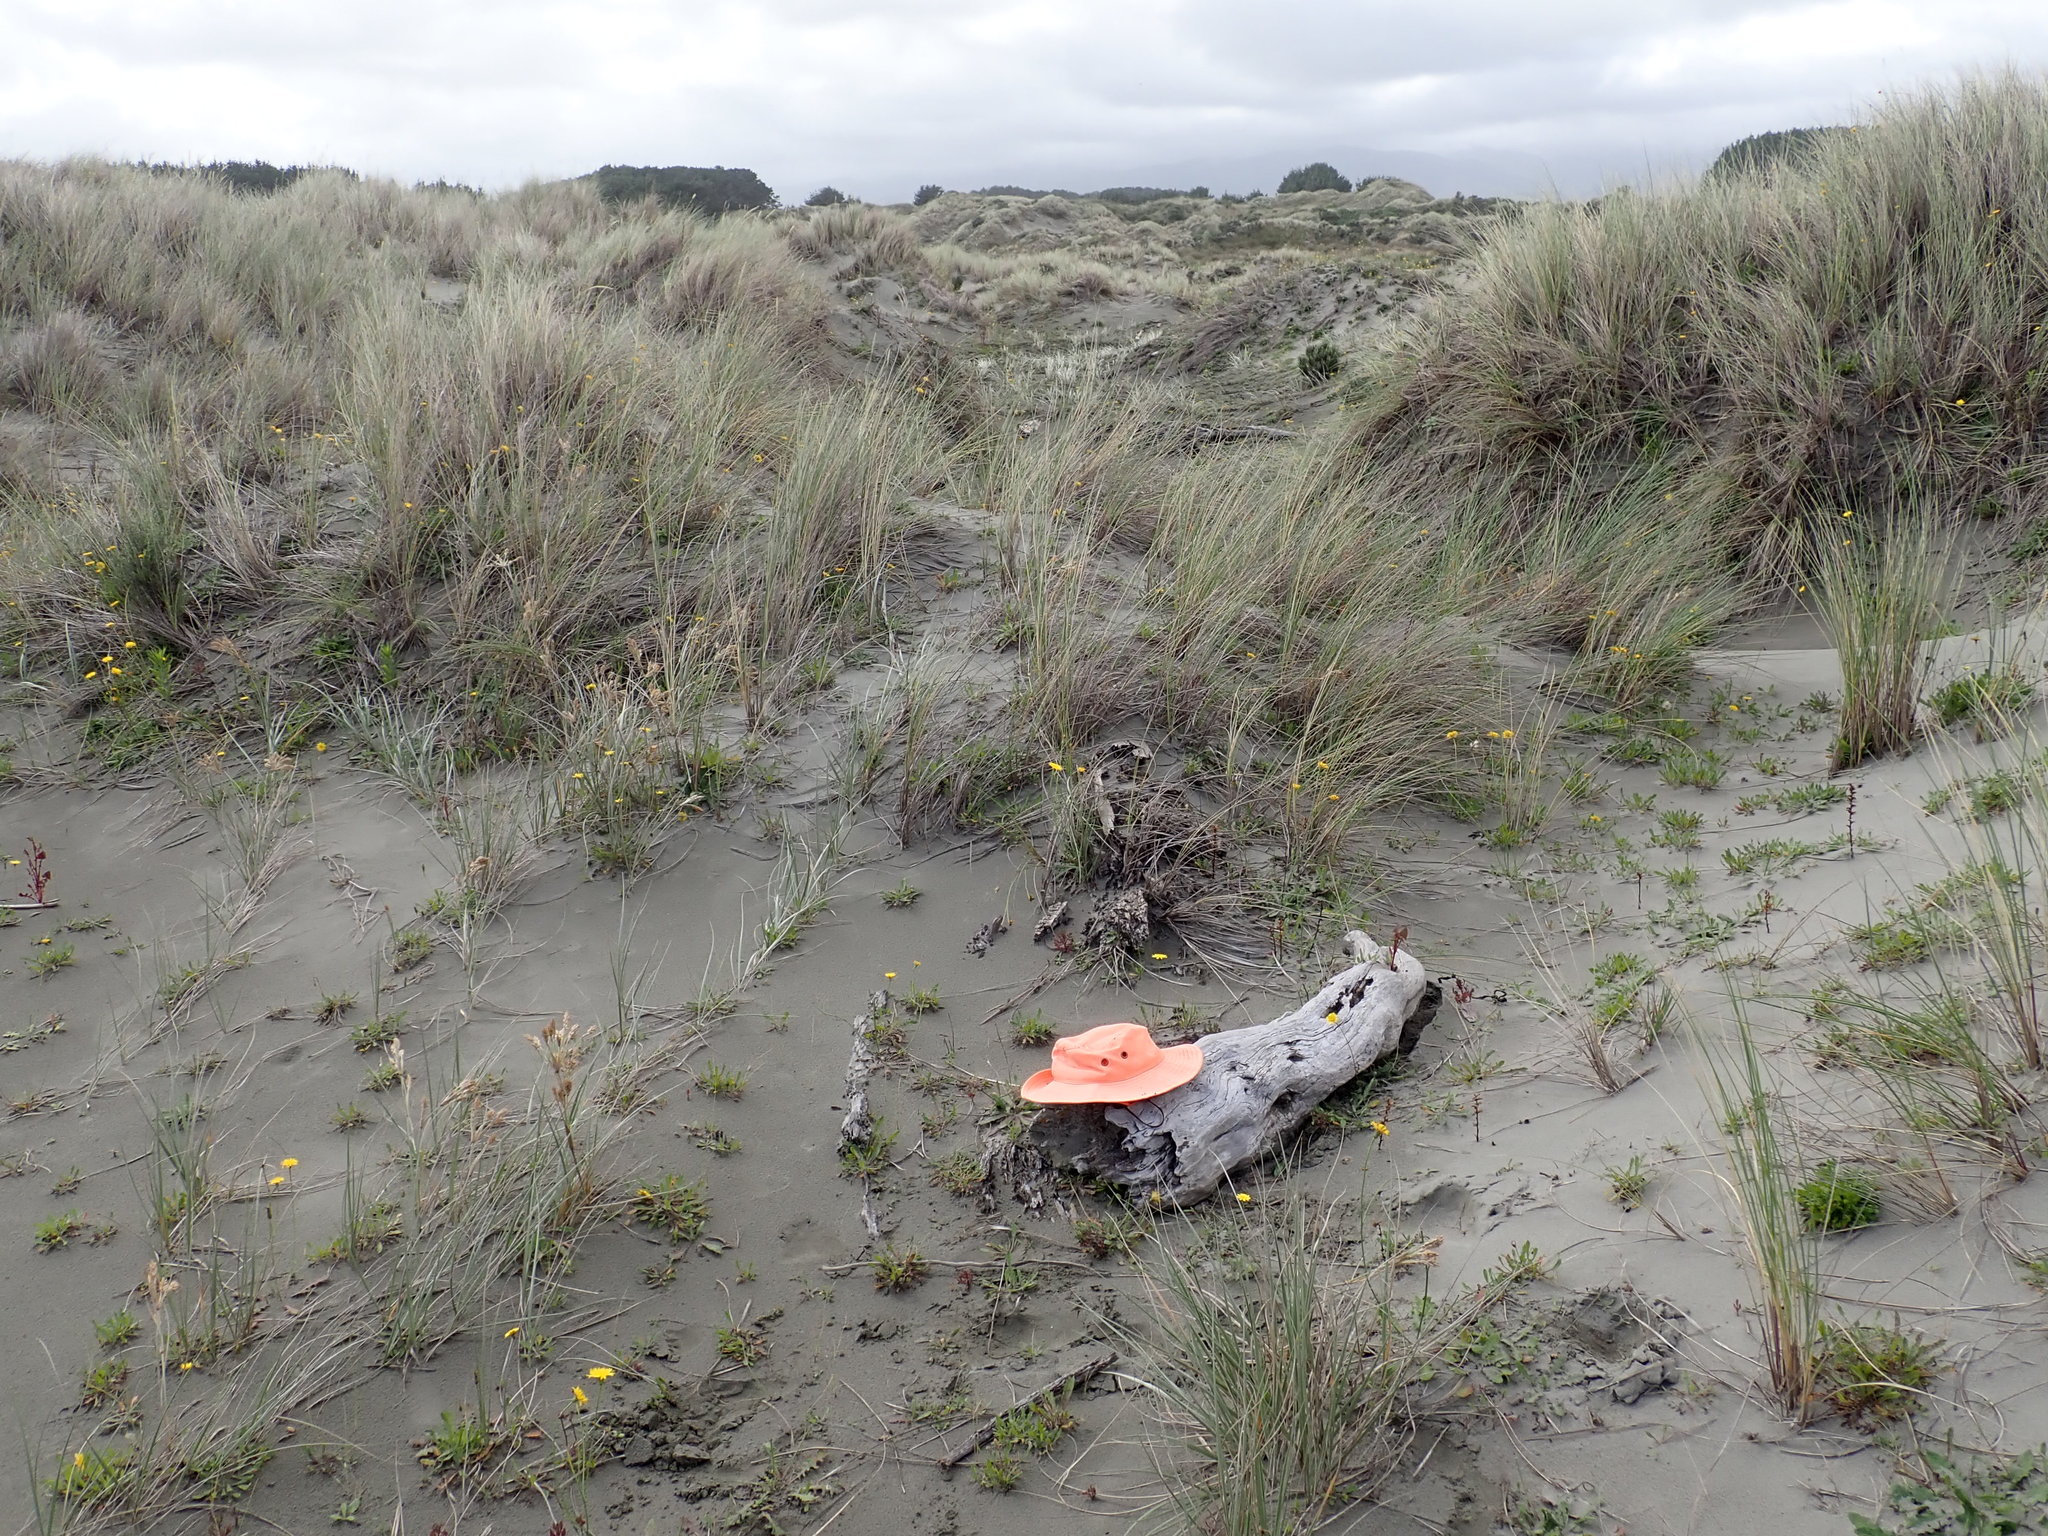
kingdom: Animalia
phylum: Arthropoda
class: Arachnida
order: Araneae
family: Theridiidae
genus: Latrodectus
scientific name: Latrodectus katipo
